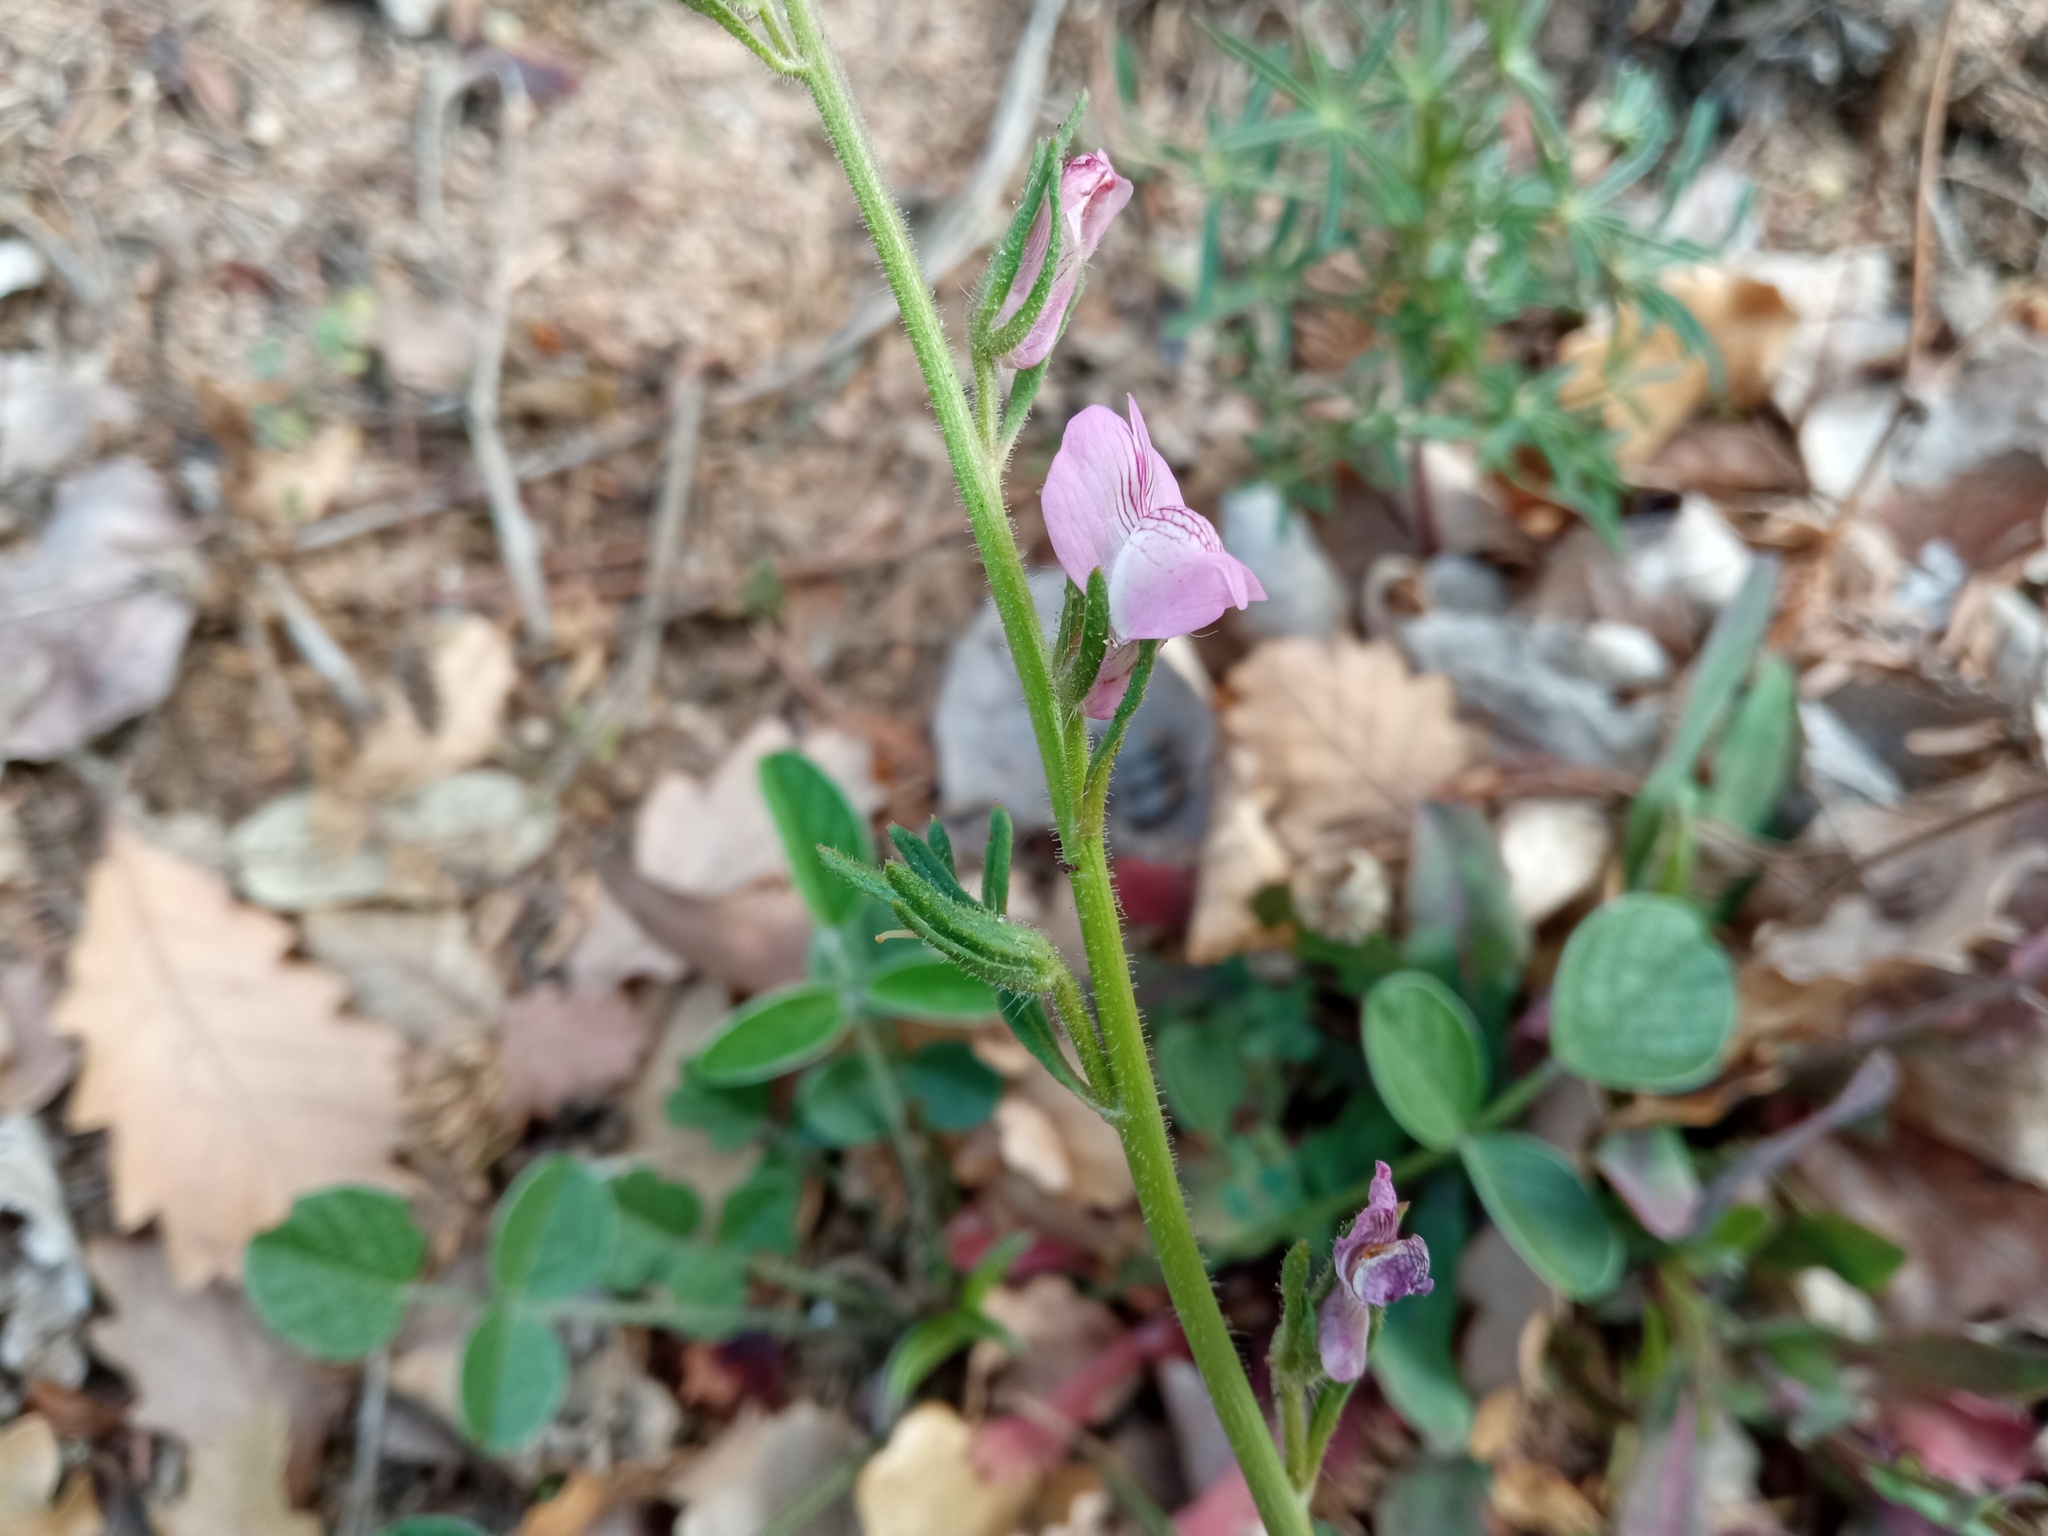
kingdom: Plantae
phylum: Tracheophyta
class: Magnoliopsida
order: Lamiales
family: Plantaginaceae
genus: Misopates
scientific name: Misopates orontium
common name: Weasel's-snout
